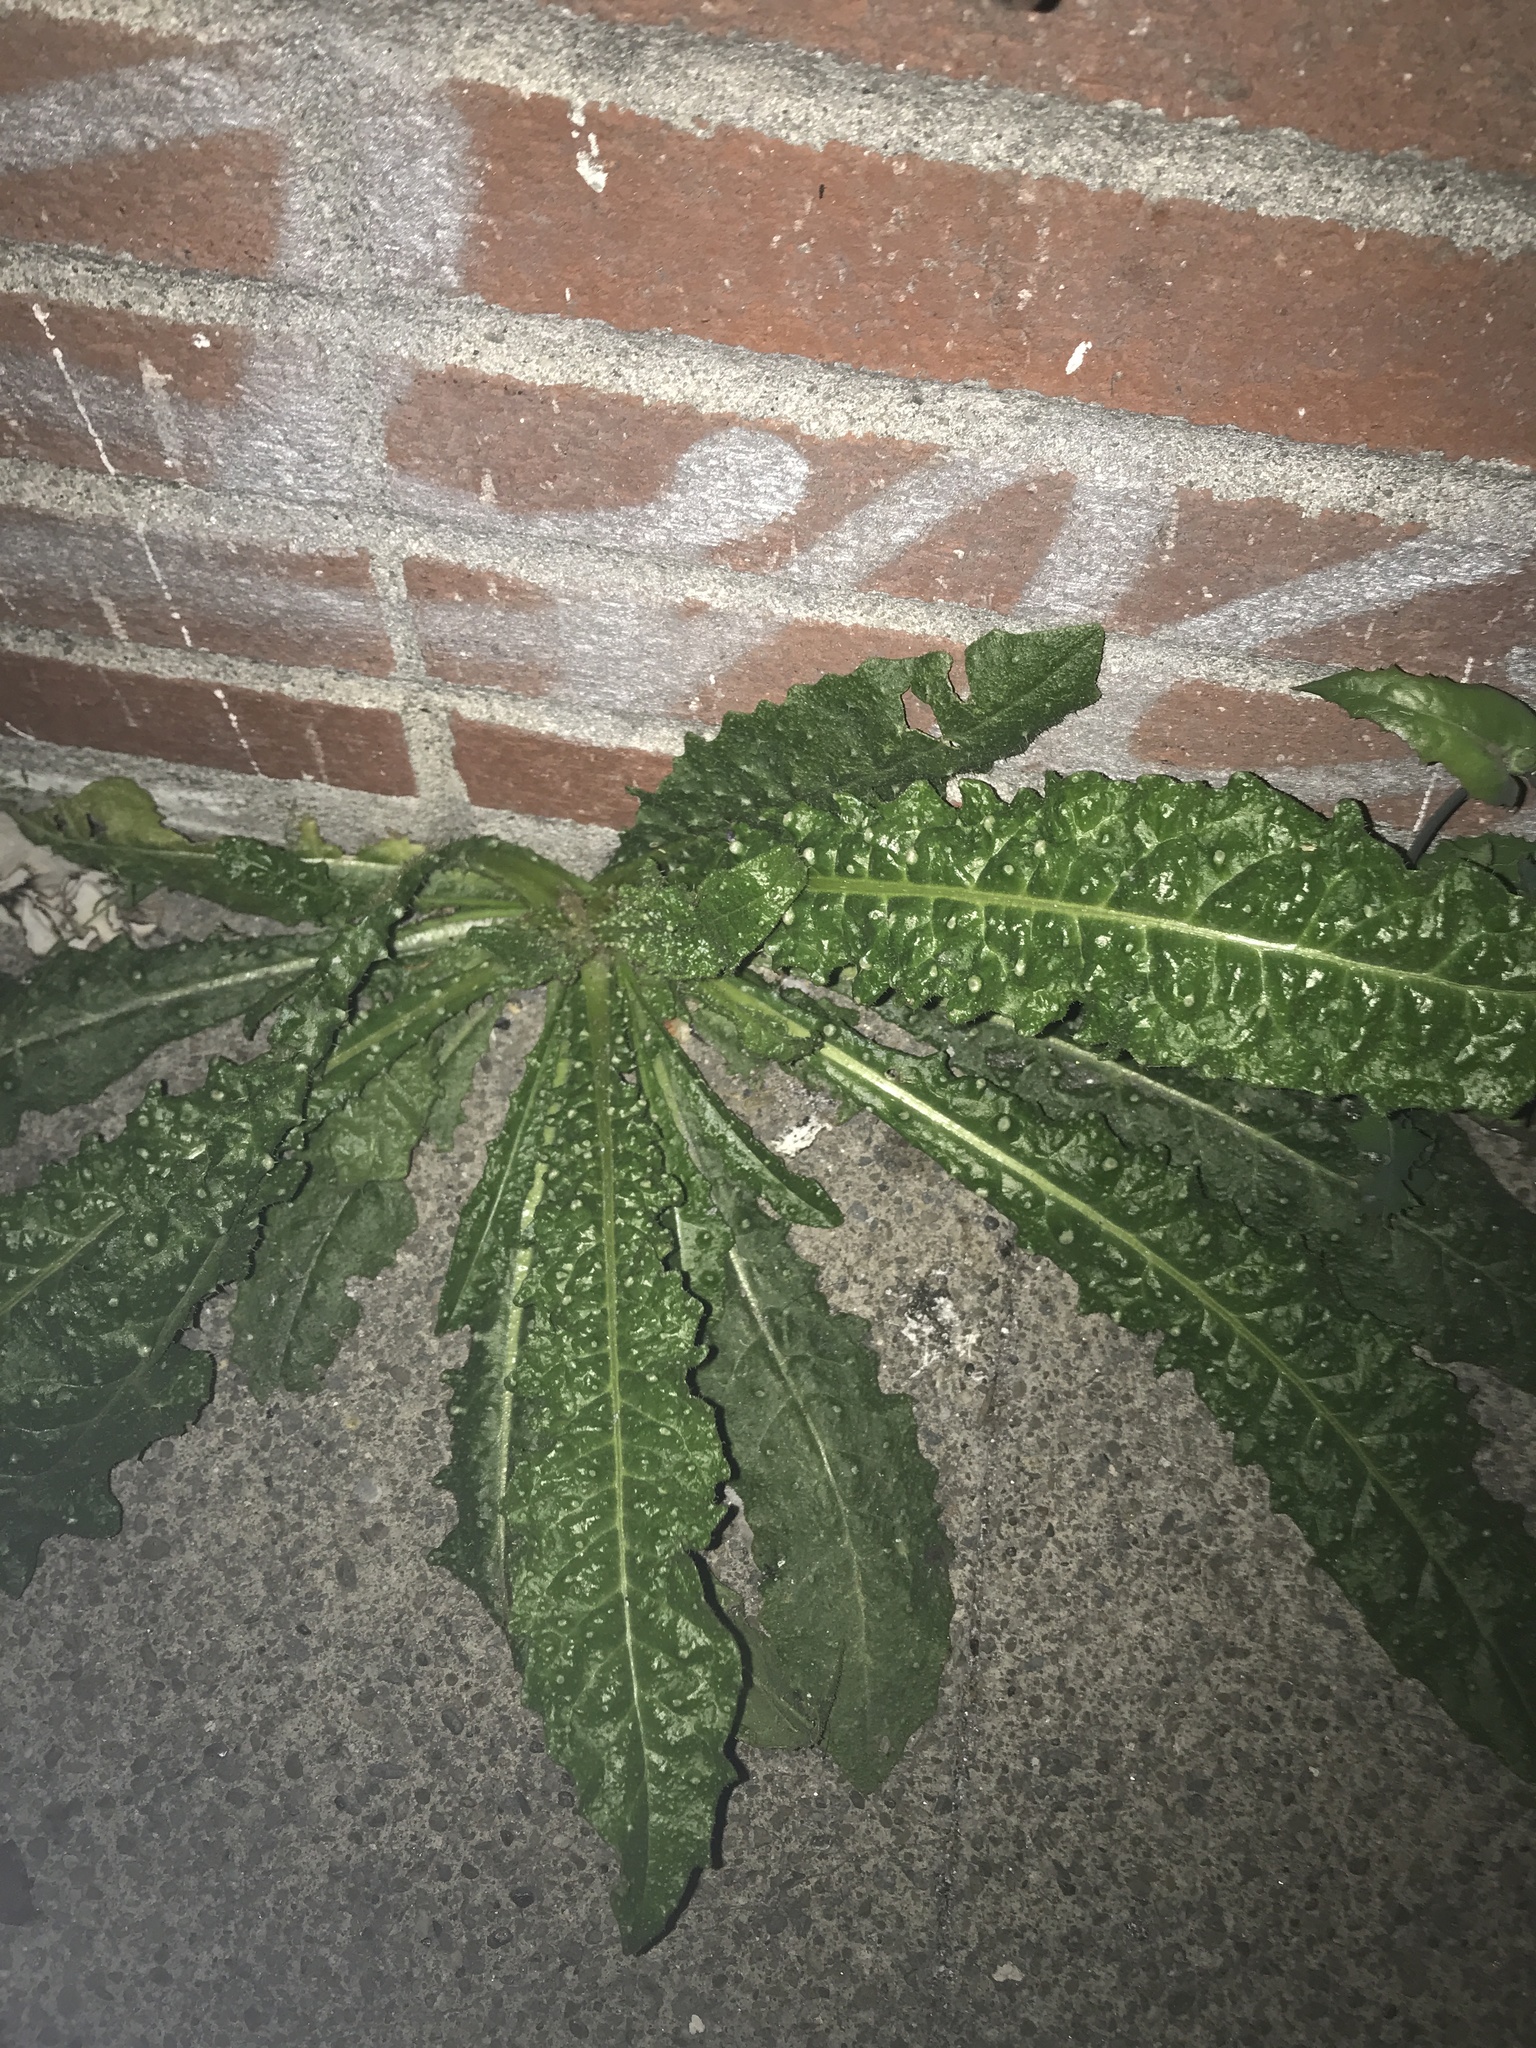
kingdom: Plantae
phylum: Tracheophyta
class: Magnoliopsida
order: Asterales
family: Asteraceae
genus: Helminthotheca
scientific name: Helminthotheca echioides
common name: Ox-tongue
